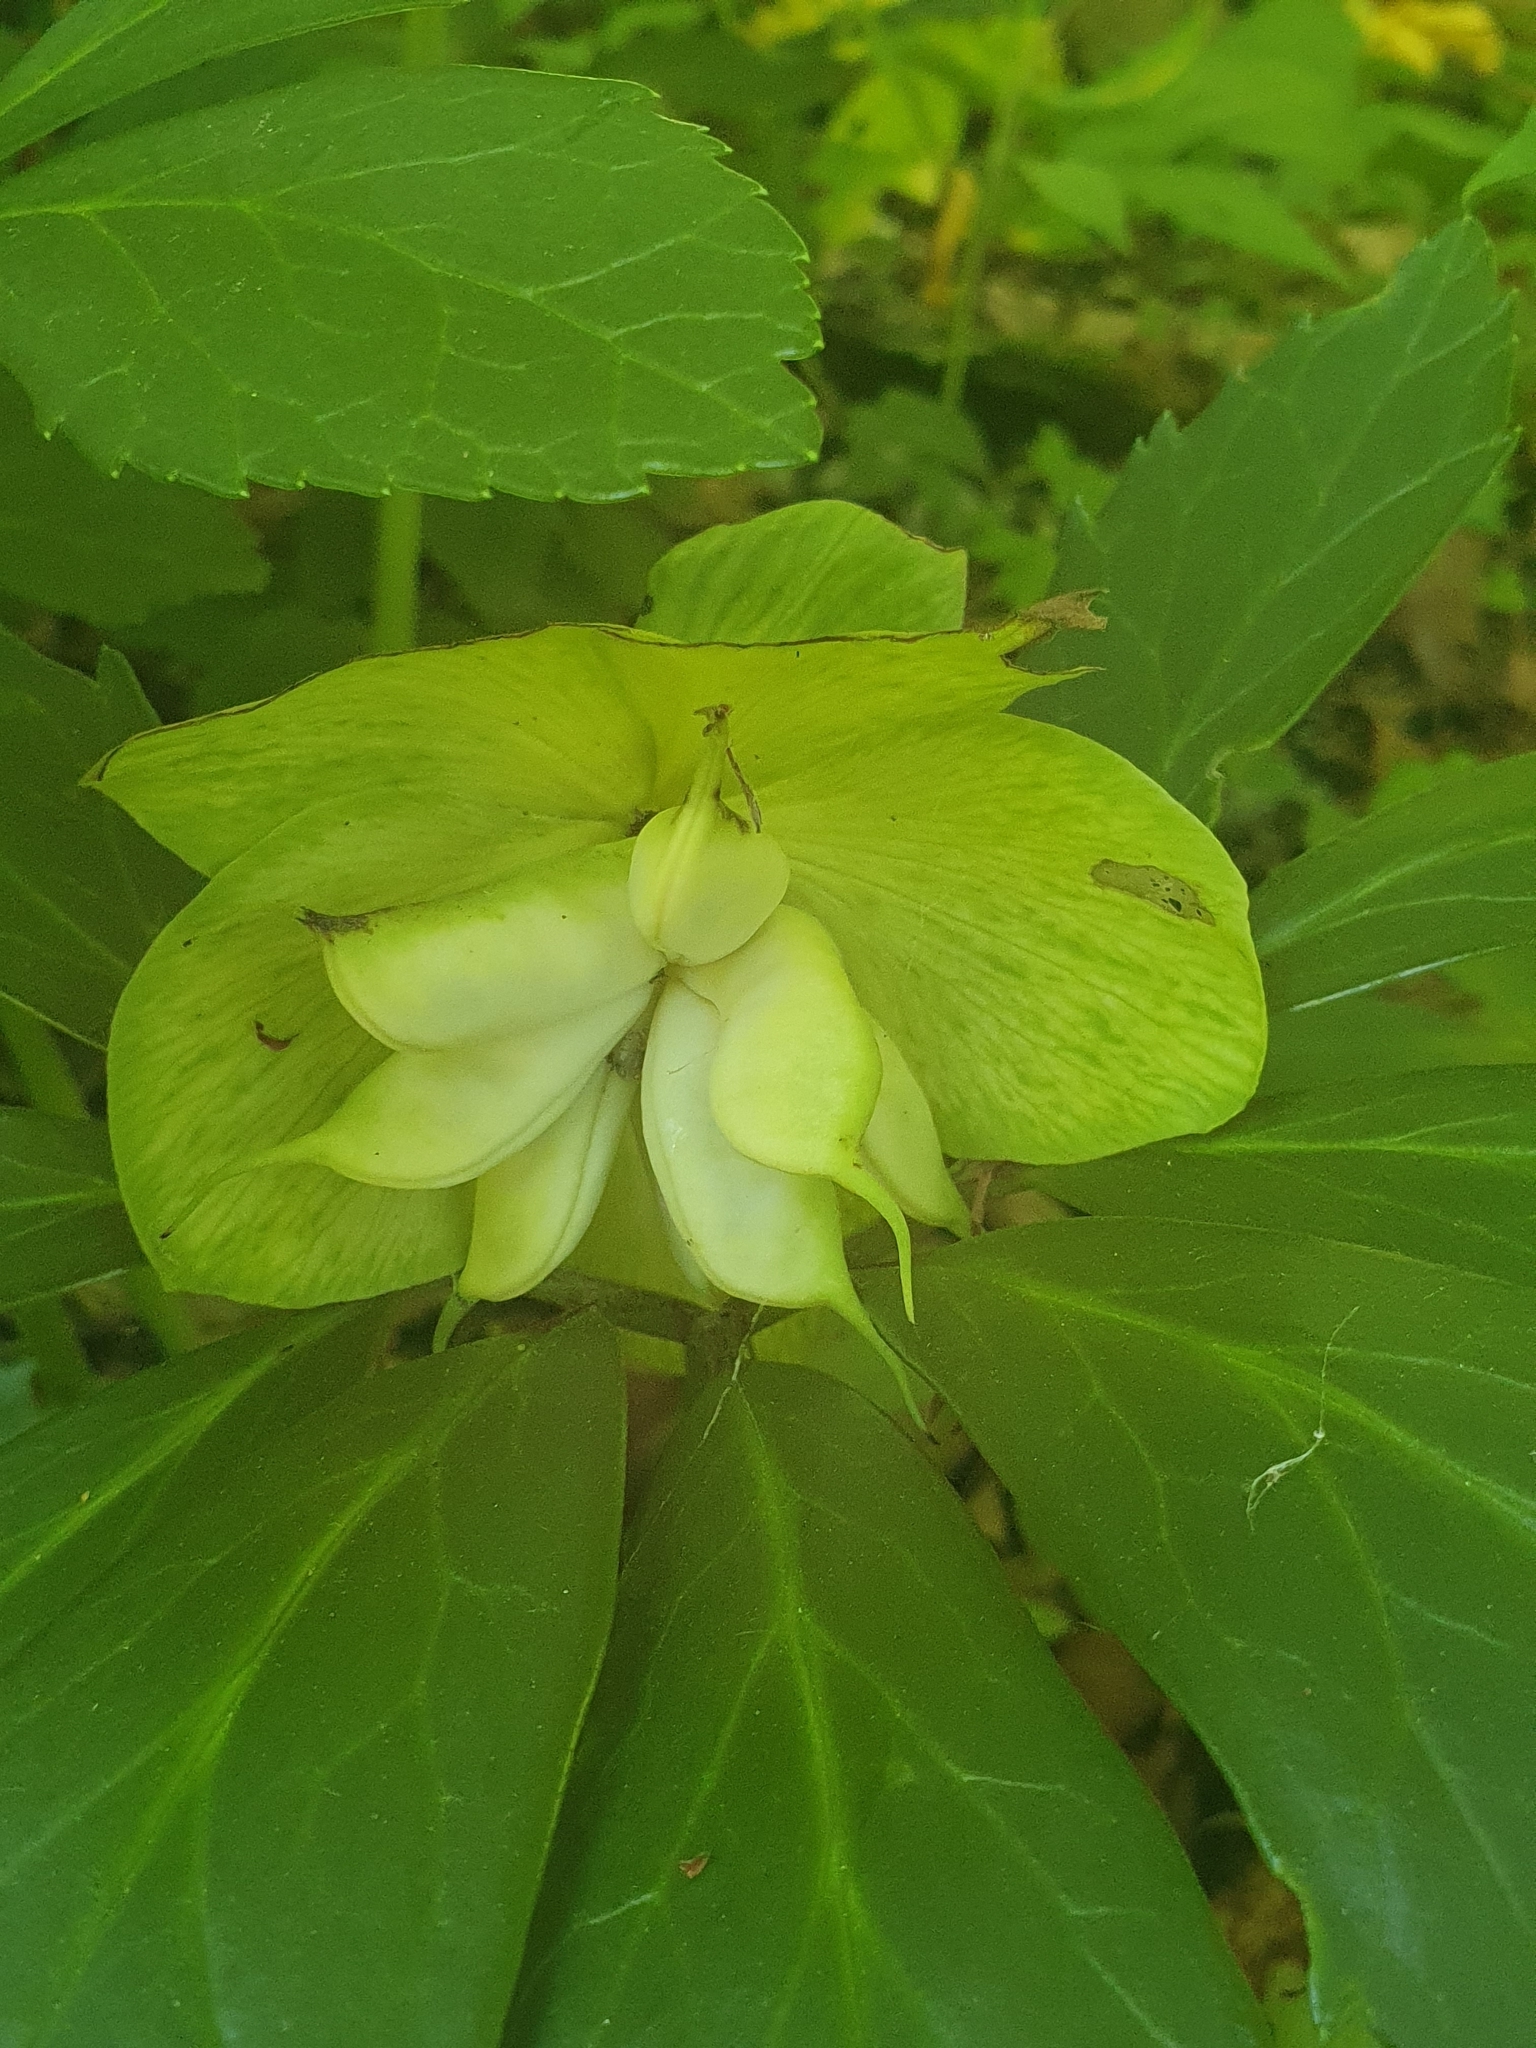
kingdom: Plantae
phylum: Tracheophyta
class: Magnoliopsida
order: Ranunculales
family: Ranunculaceae
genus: Helleborus
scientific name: Helleborus niger
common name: Black hellebore
